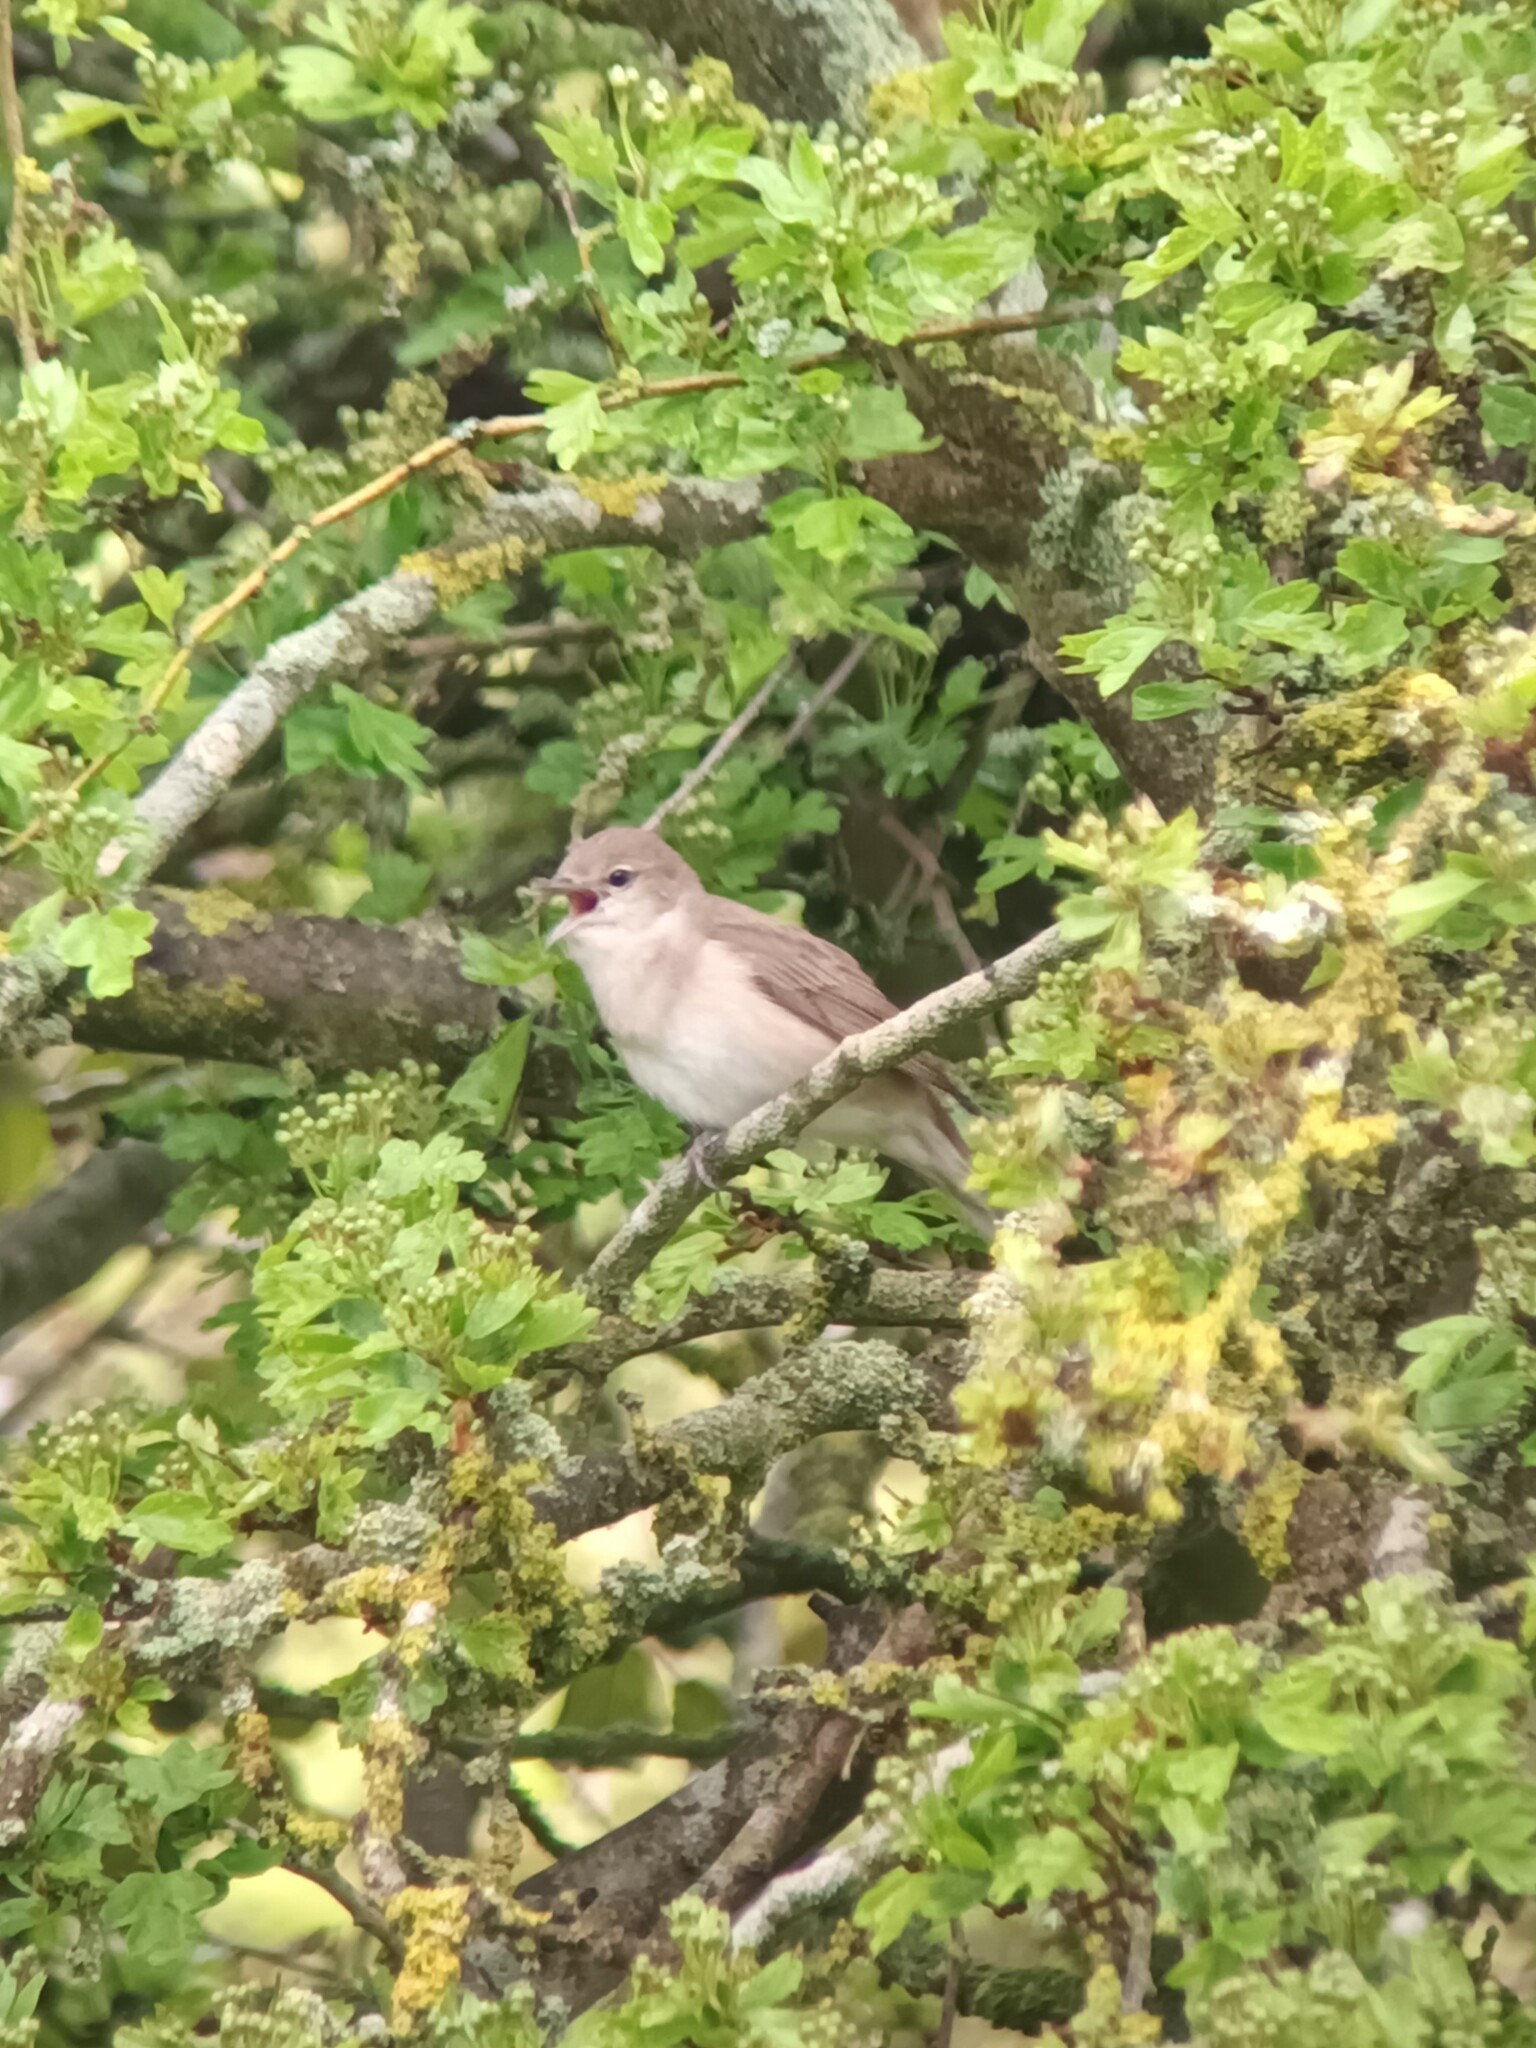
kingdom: Animalia
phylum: Chordata
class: Aves
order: Passeriformes
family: Sylviidae
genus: Sylvia
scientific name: Sylvia borin
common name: Garden warbler
